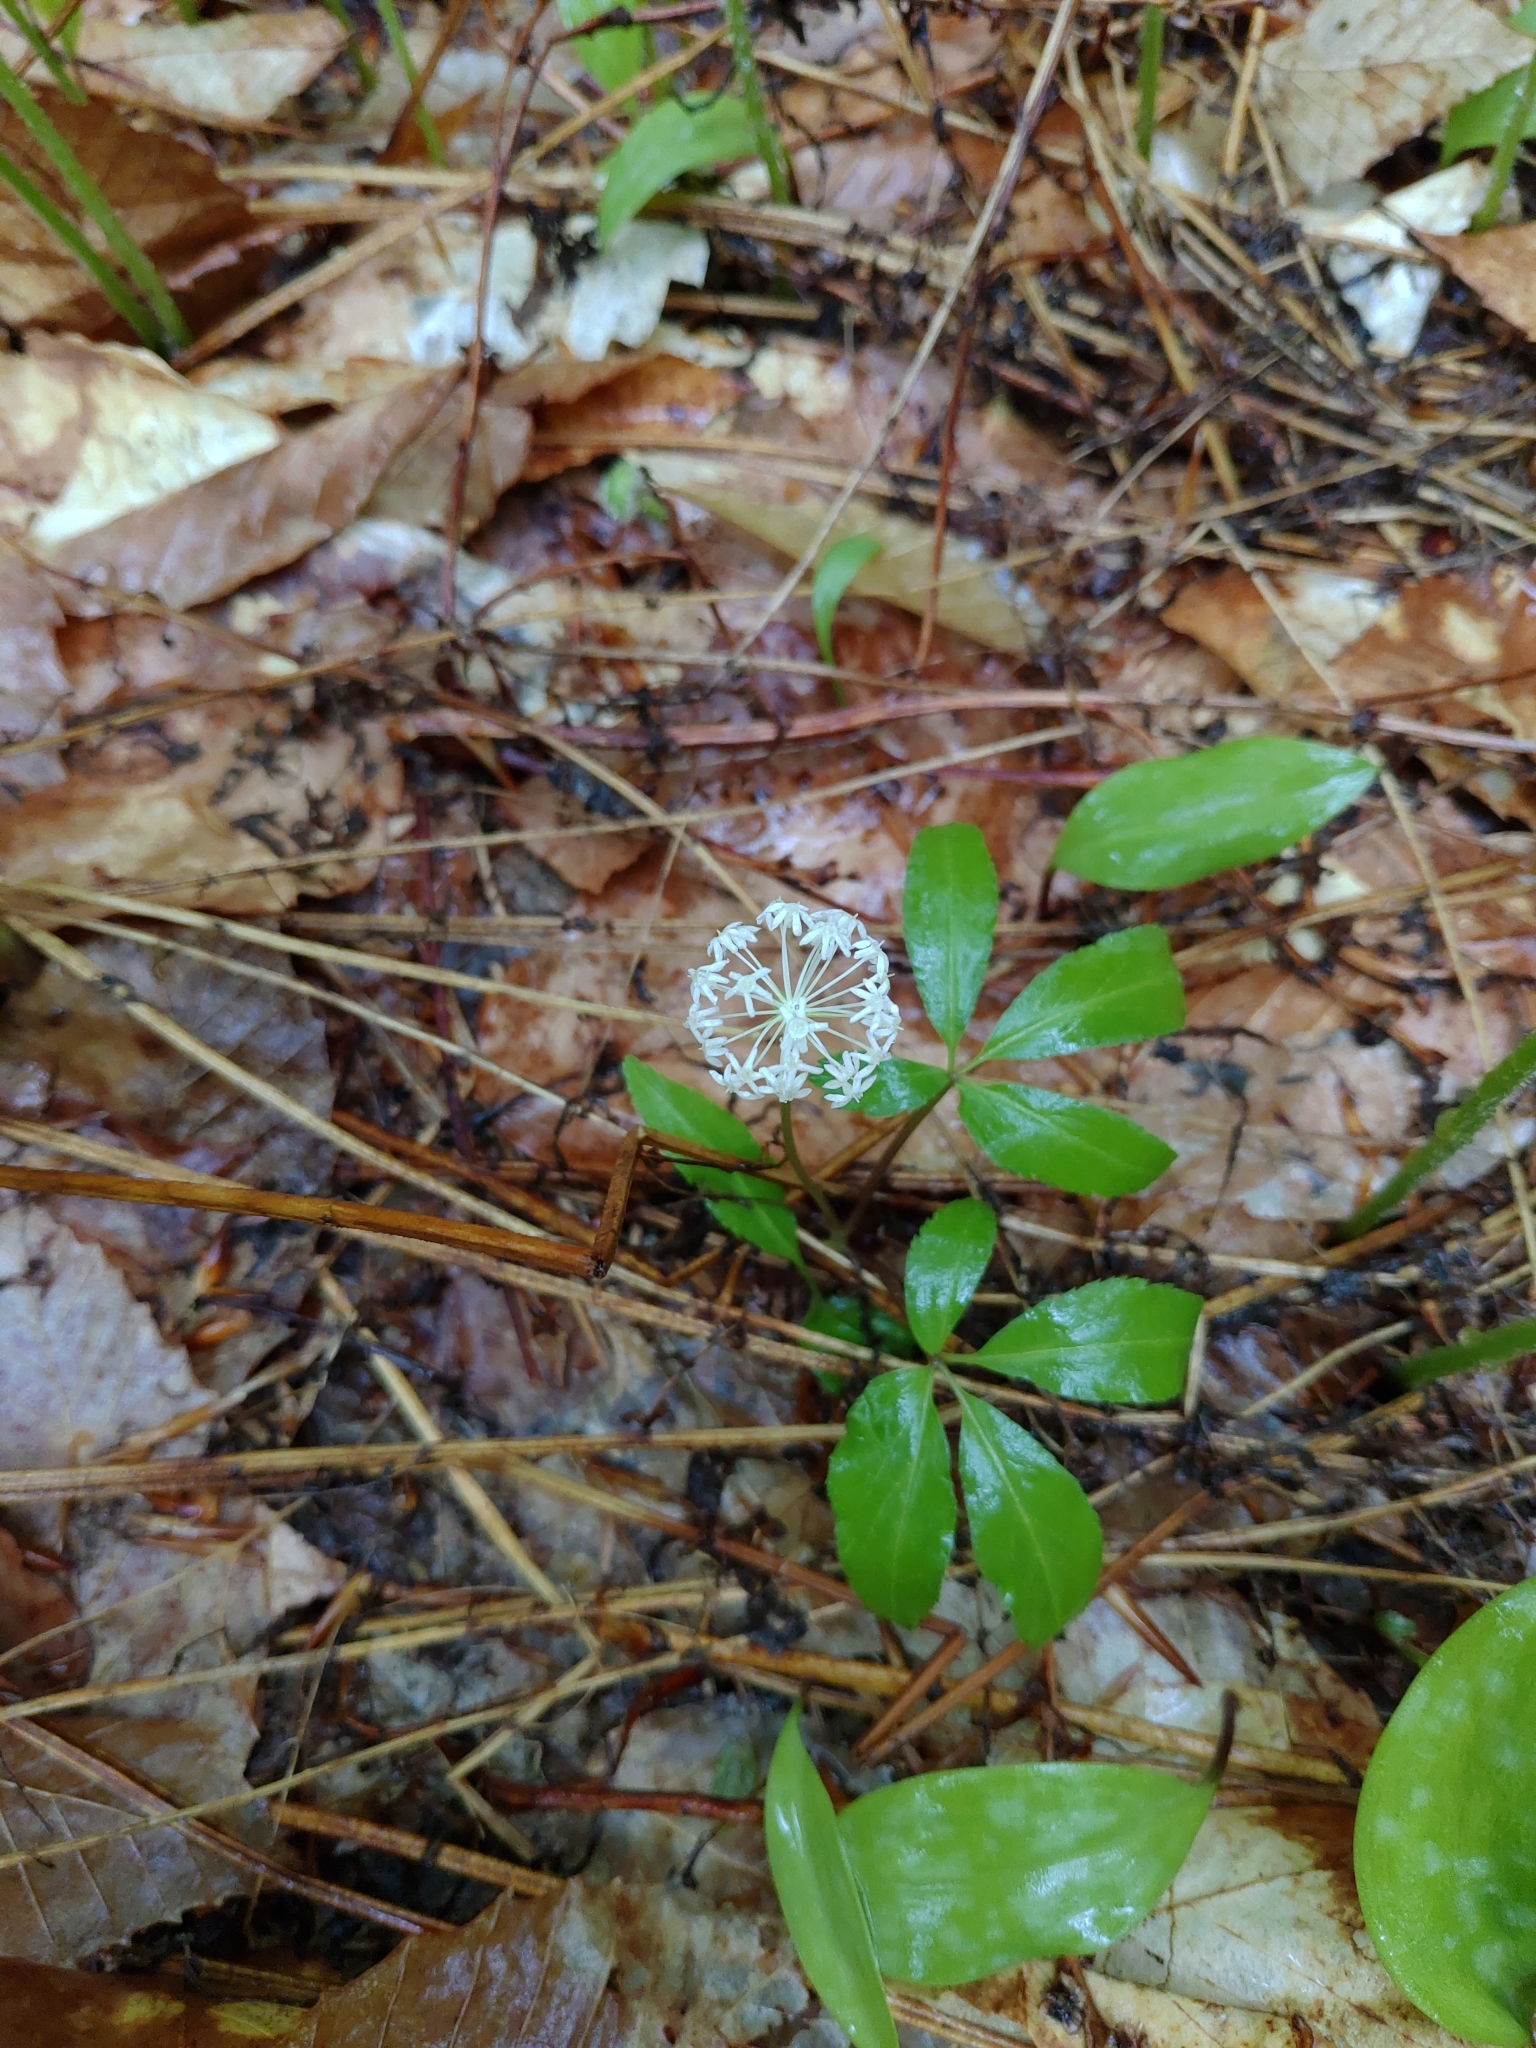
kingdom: Plantae
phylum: Tracheophyta
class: Magnoliopsida
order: Apiales
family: Araliaceae
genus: Panax
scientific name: Panax trifolius
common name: Dwarf ginseng
